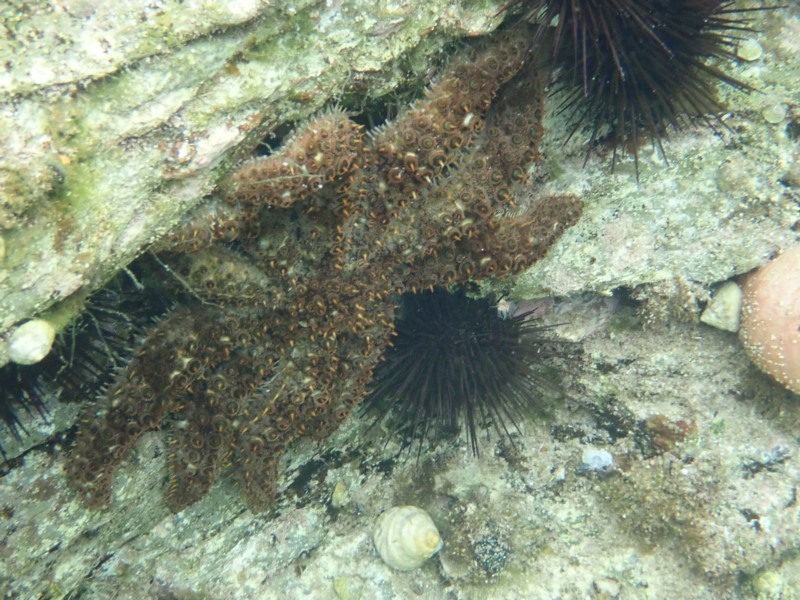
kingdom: Animalia
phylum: Echinodermata
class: Asteroidea
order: Forcipulatida
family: Asteriidae
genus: Coscinasterias
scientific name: Coscinasterias muricata
